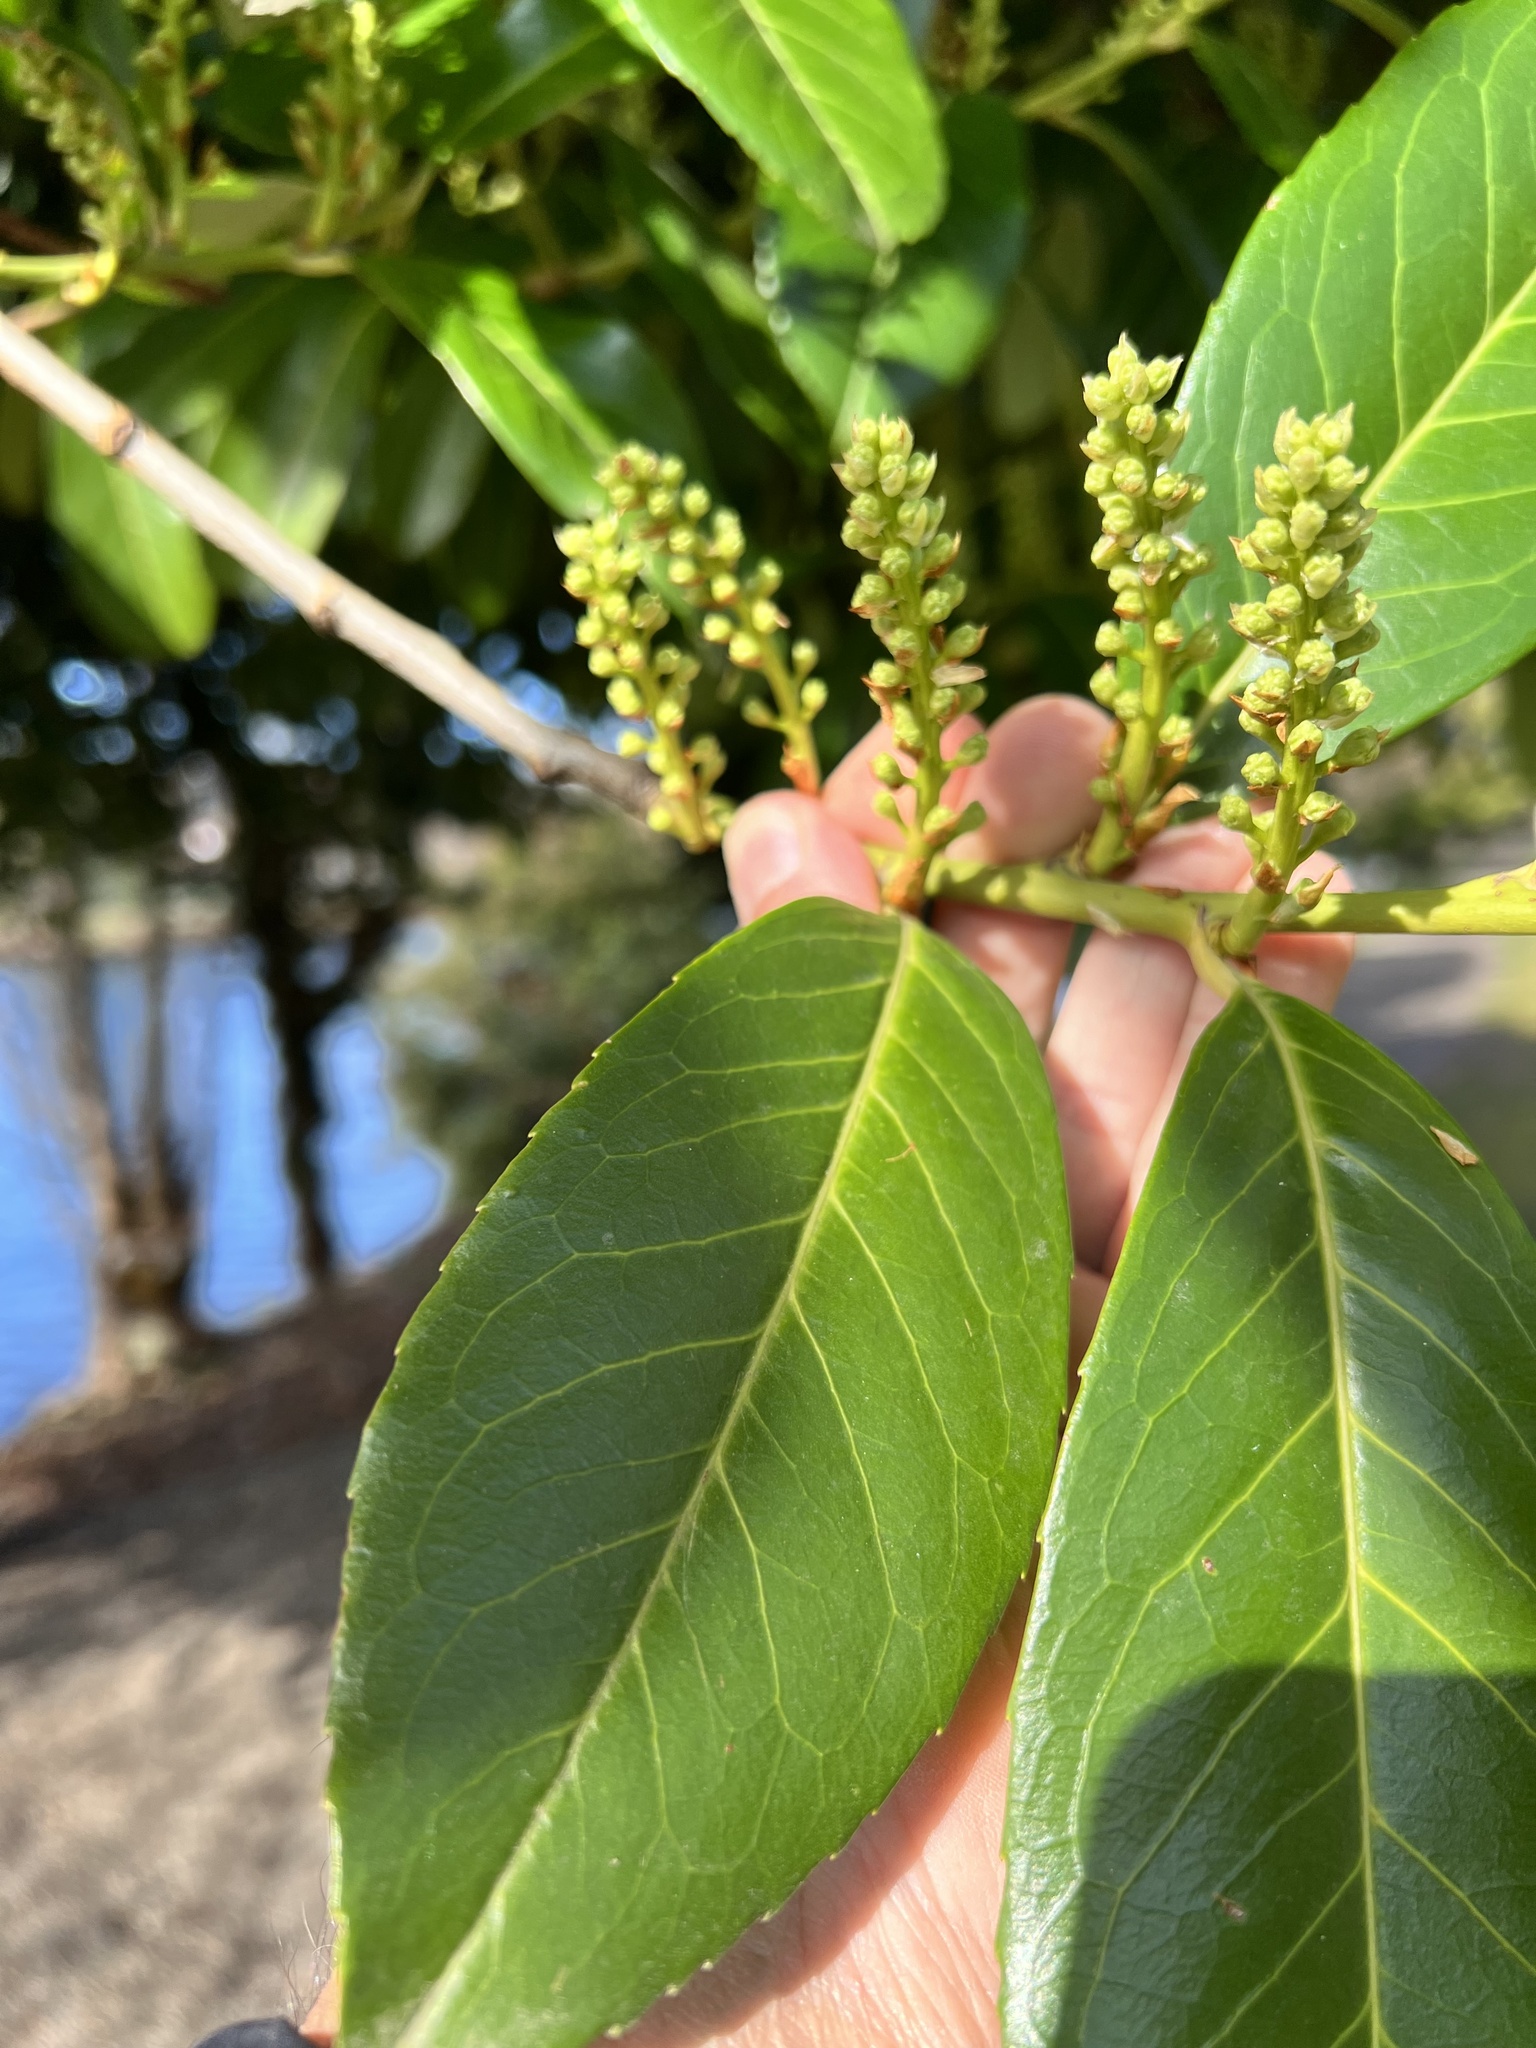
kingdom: Plantae
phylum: Tracheophyta
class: Magnoliopsida
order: Rosales
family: Rosaceae
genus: Prunus
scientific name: Prunus laurocerasus
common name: Cherry laurel
